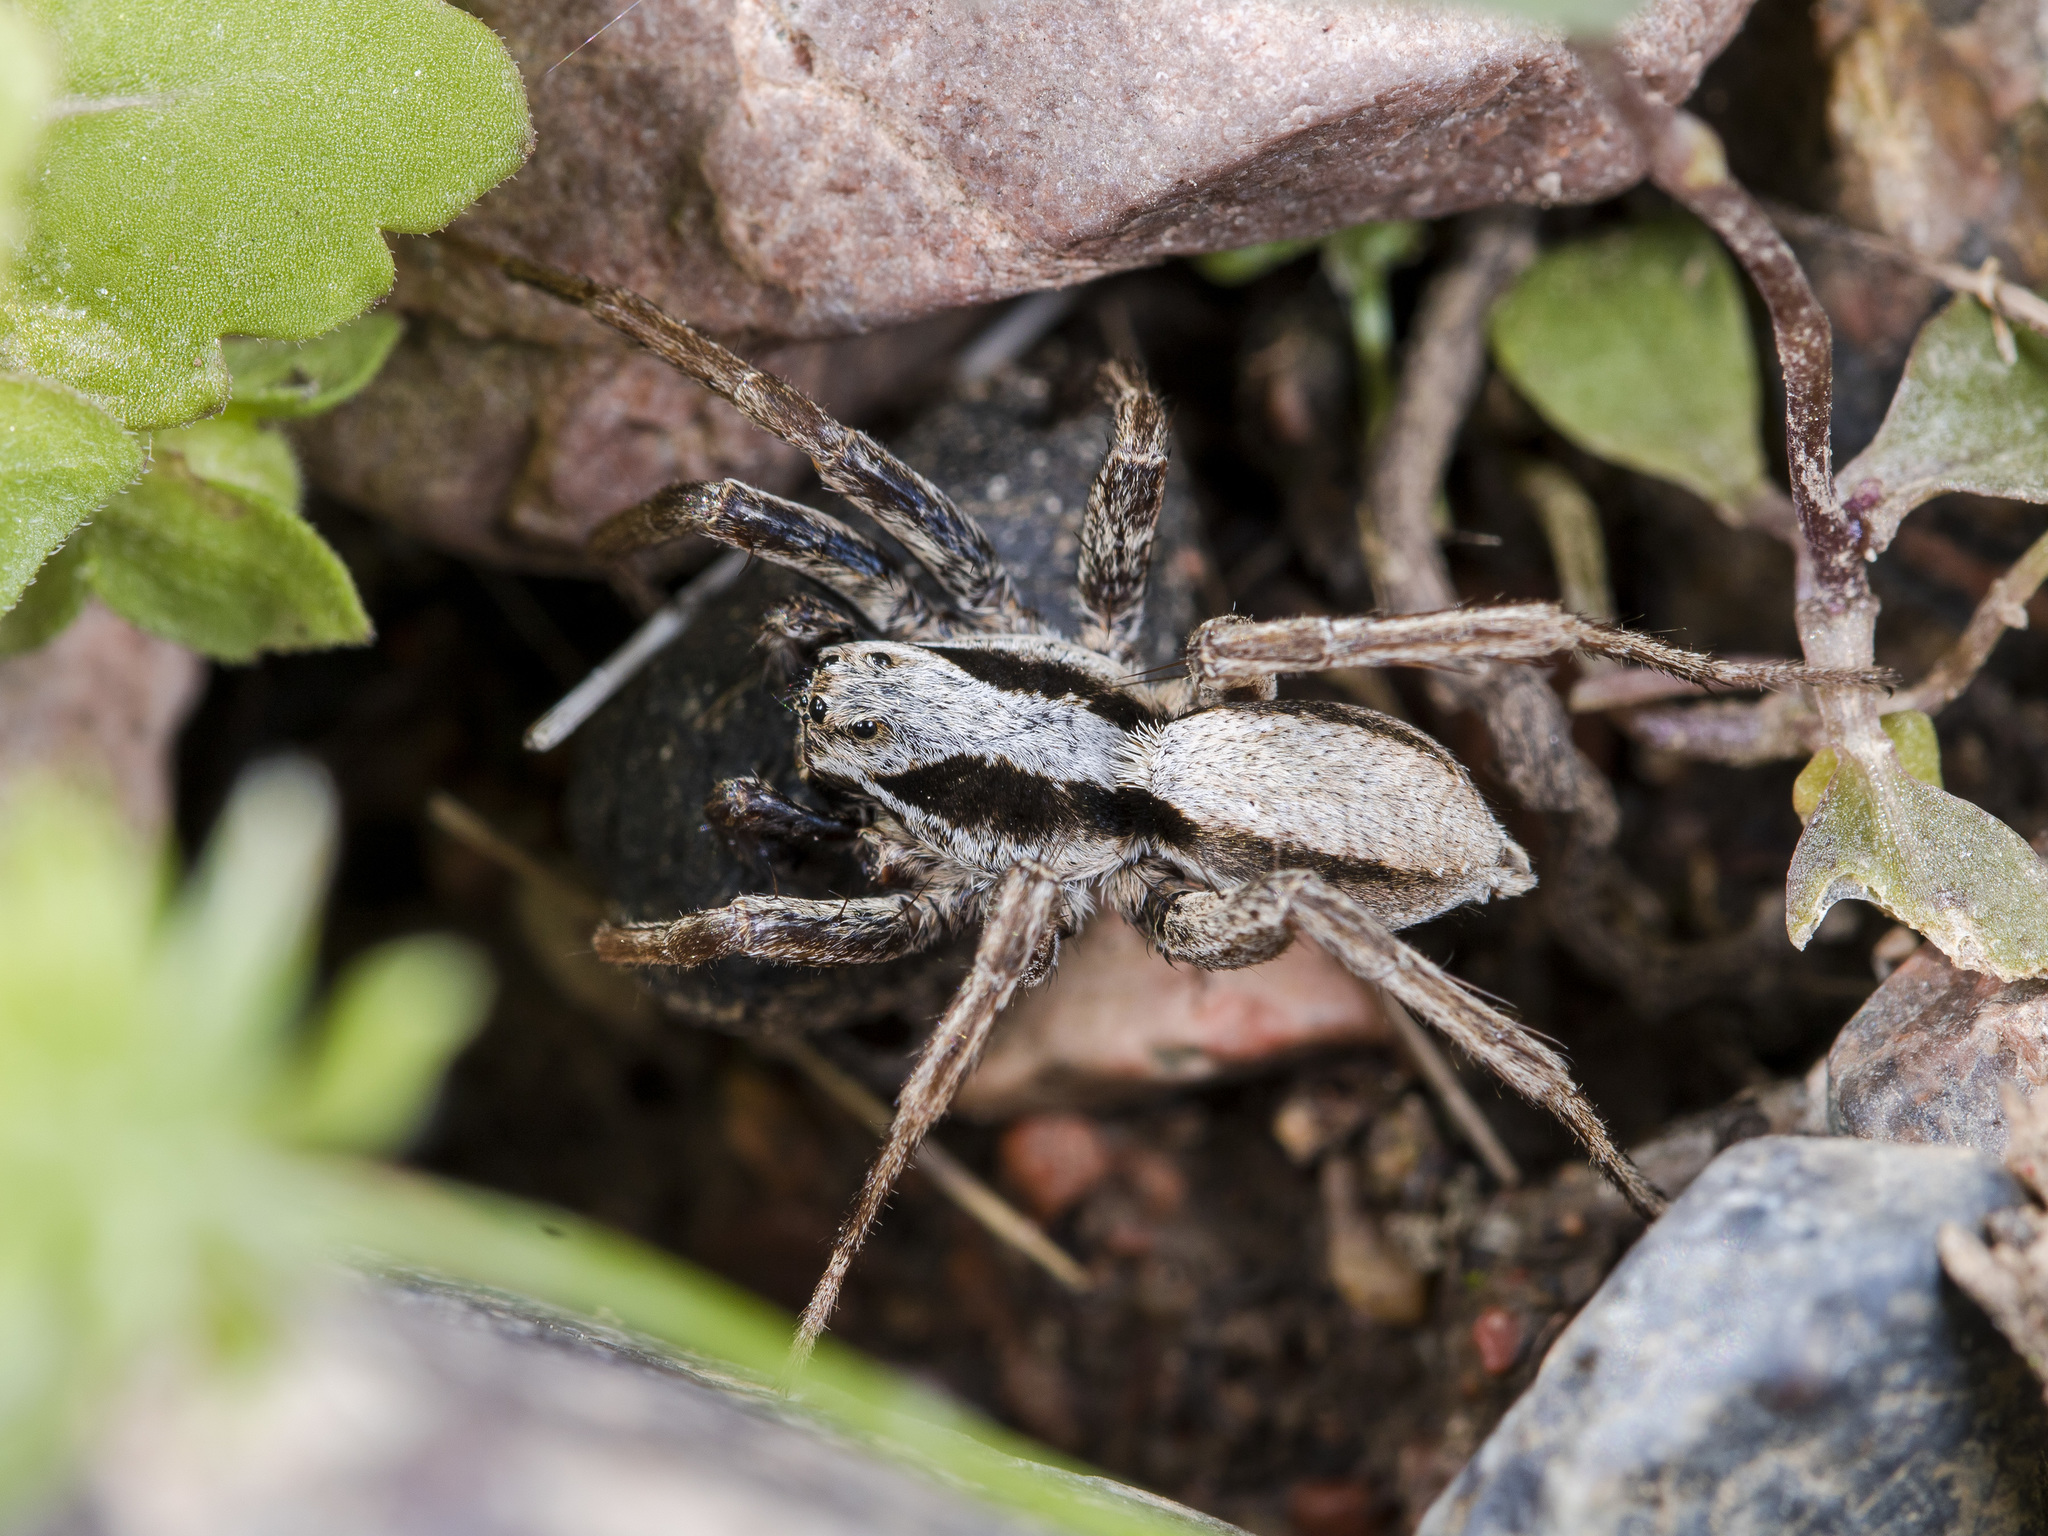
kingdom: Animalia
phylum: Arthropoda
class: Arachnida
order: Araneae
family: Lycosidae
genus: Alopecosa
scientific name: Alopecosa taeniopus
